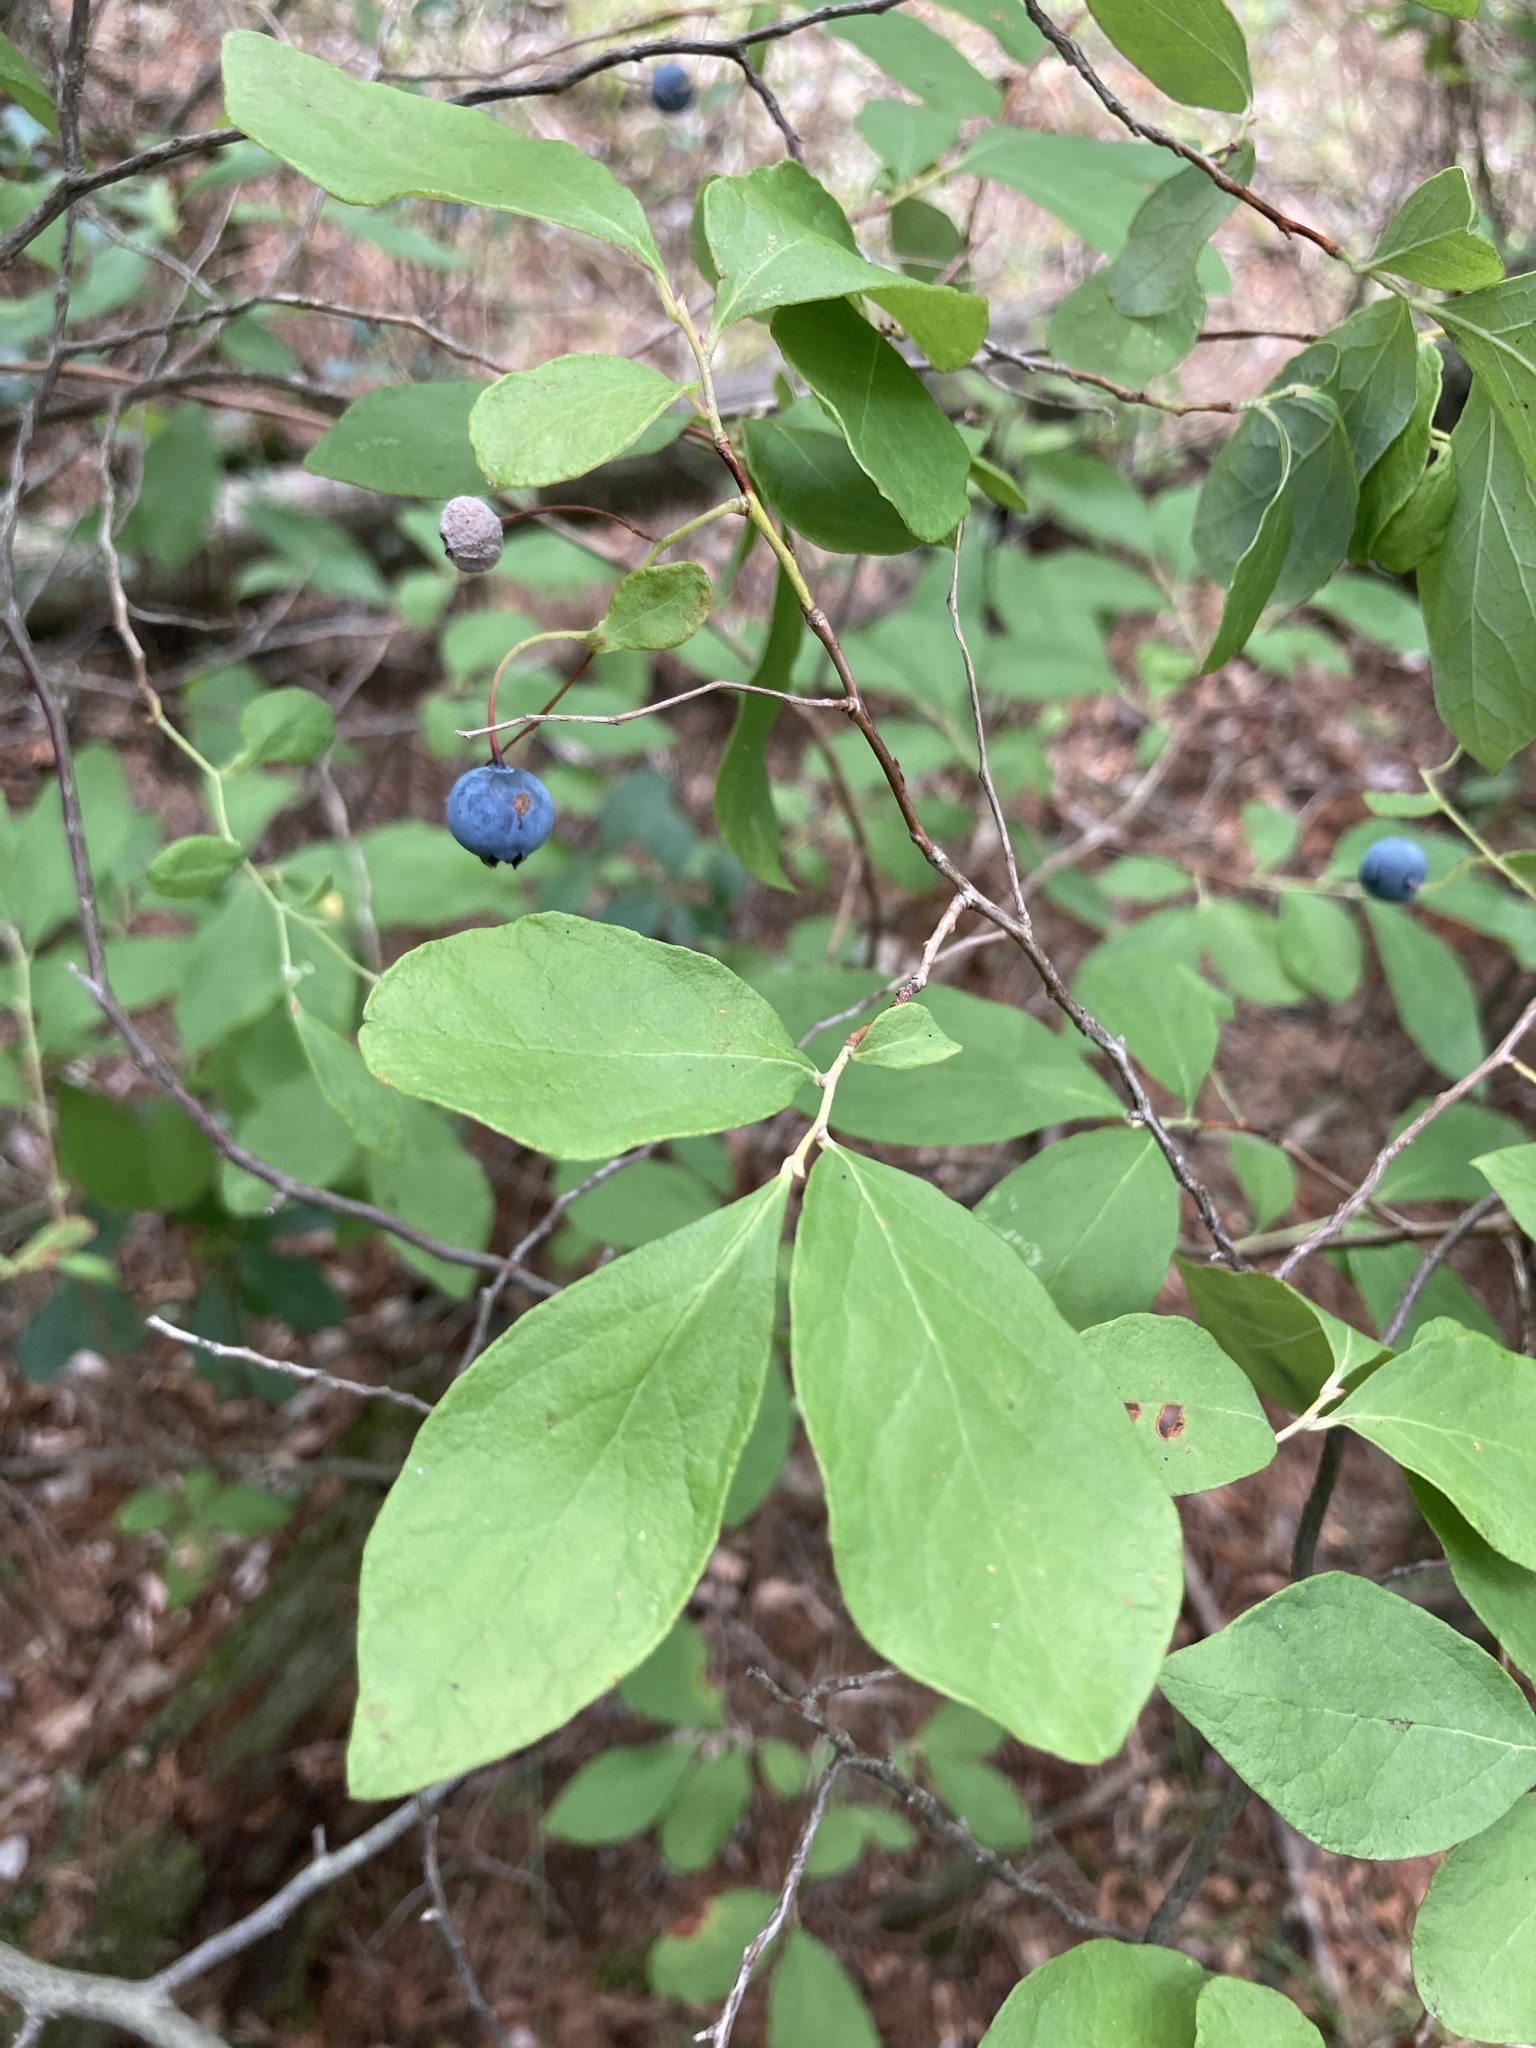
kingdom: Plantae
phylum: Tracheophyta
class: Magnoliopsida
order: Ericales
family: Ericaceae
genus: Gaylussacia
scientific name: Gaylussacia frondosa
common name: Dangleberry
